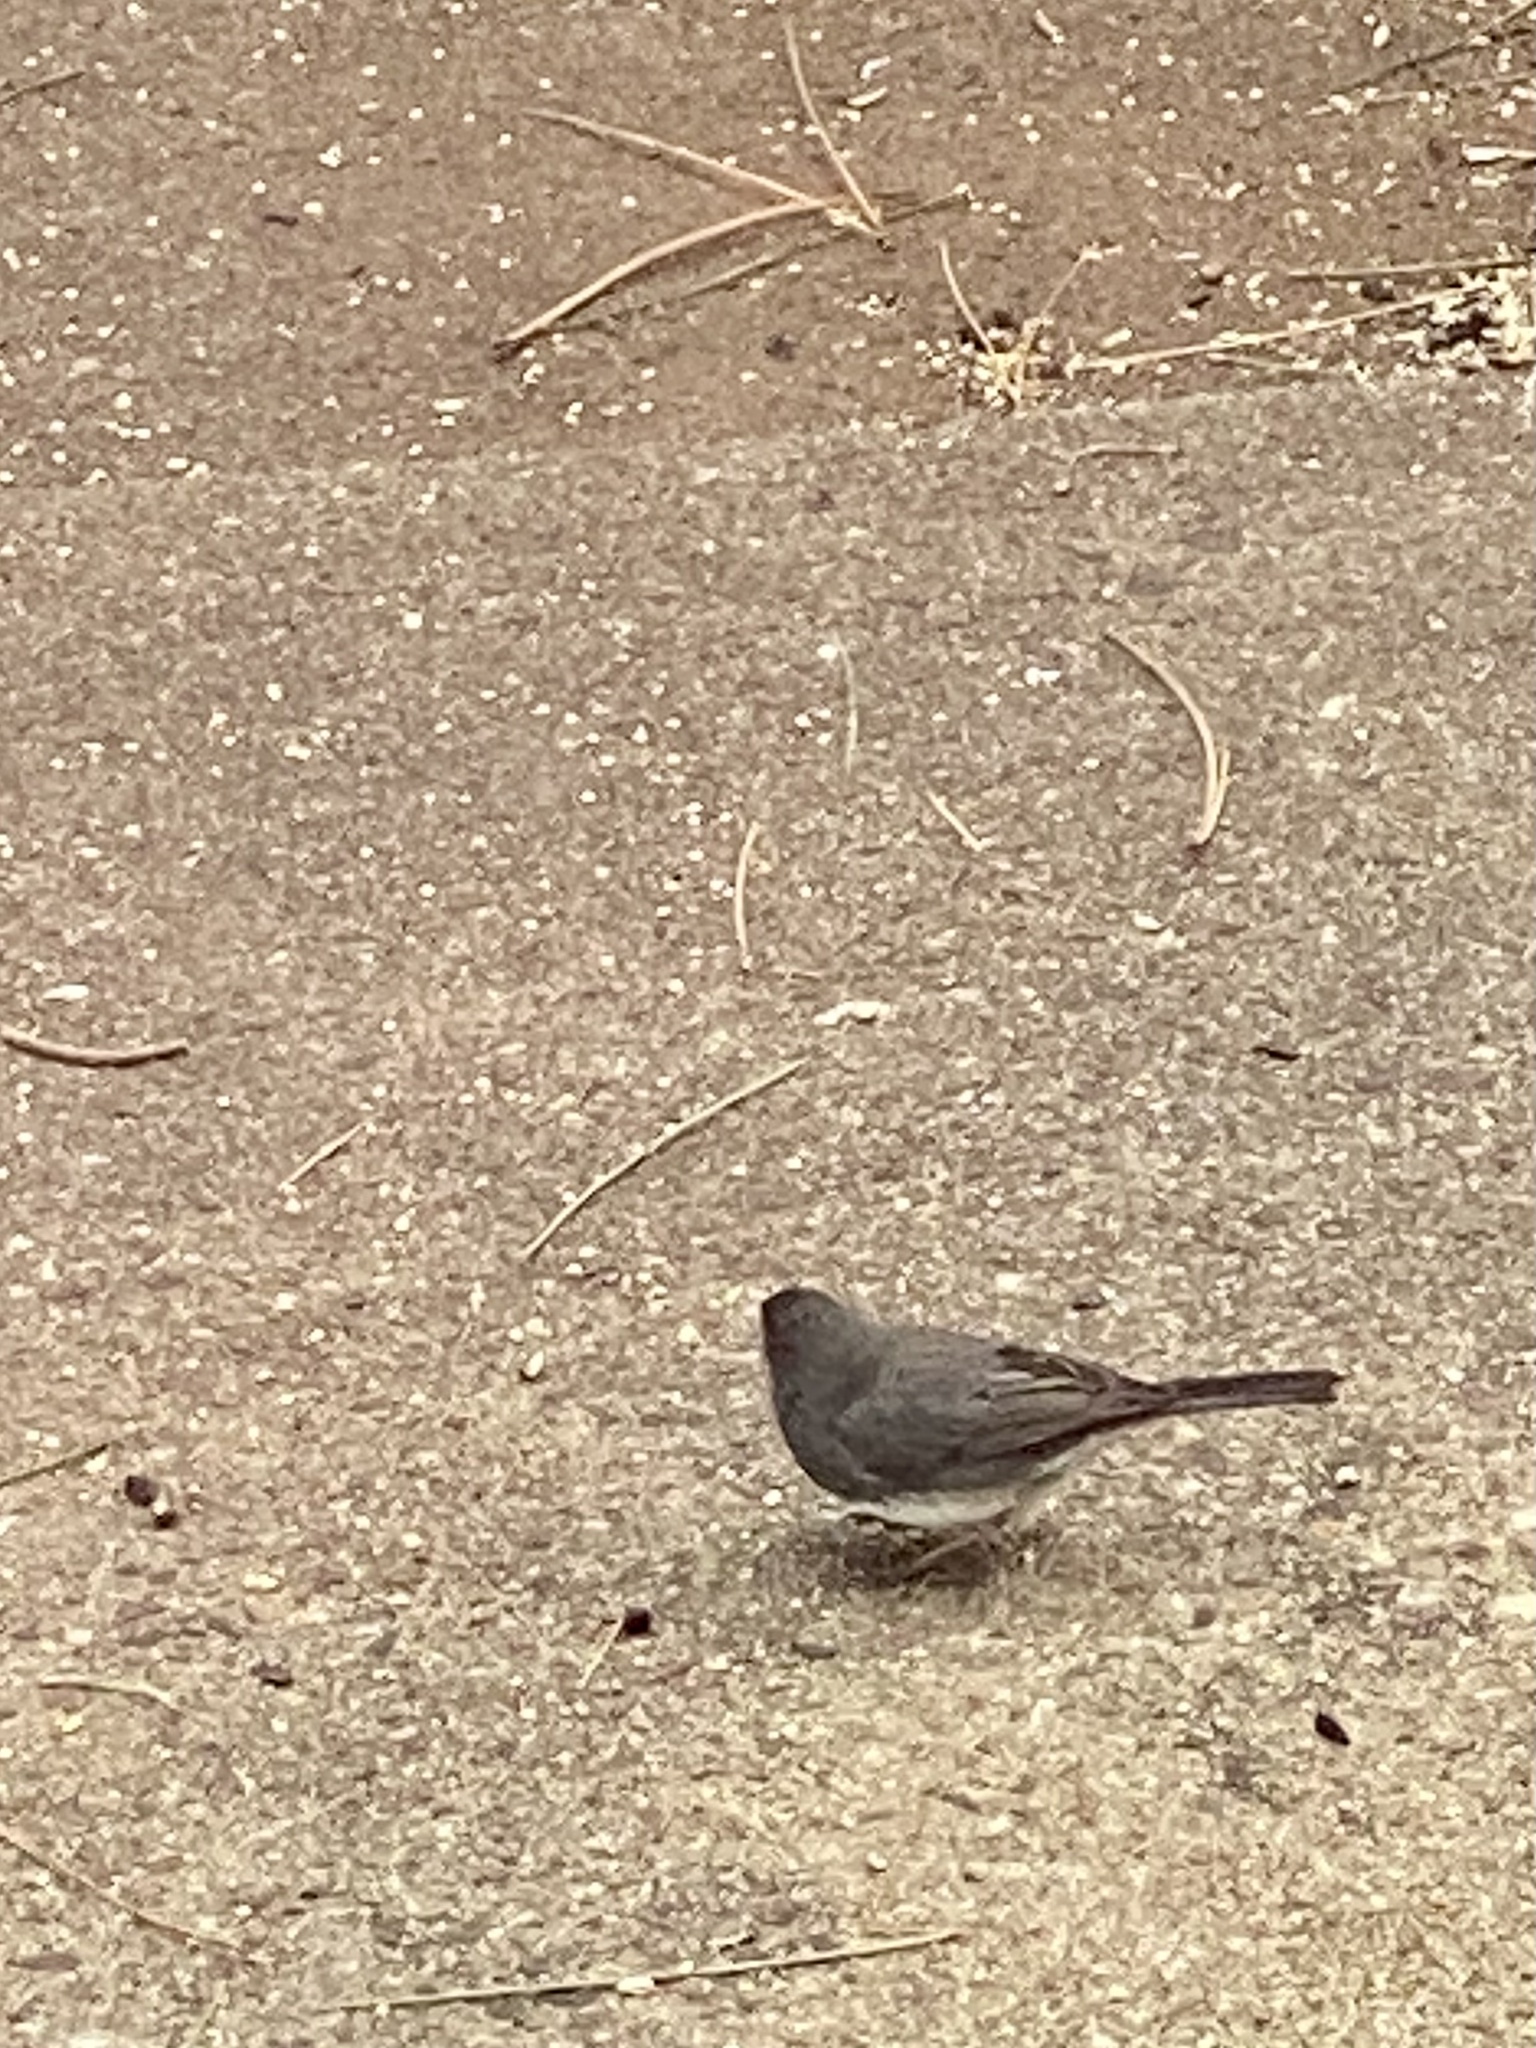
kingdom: Animalia
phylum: Chordata
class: Aves
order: Passeriformes
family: Passerellidae
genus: Junco
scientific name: Junco hyemalis
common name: Dark-eyed junco
